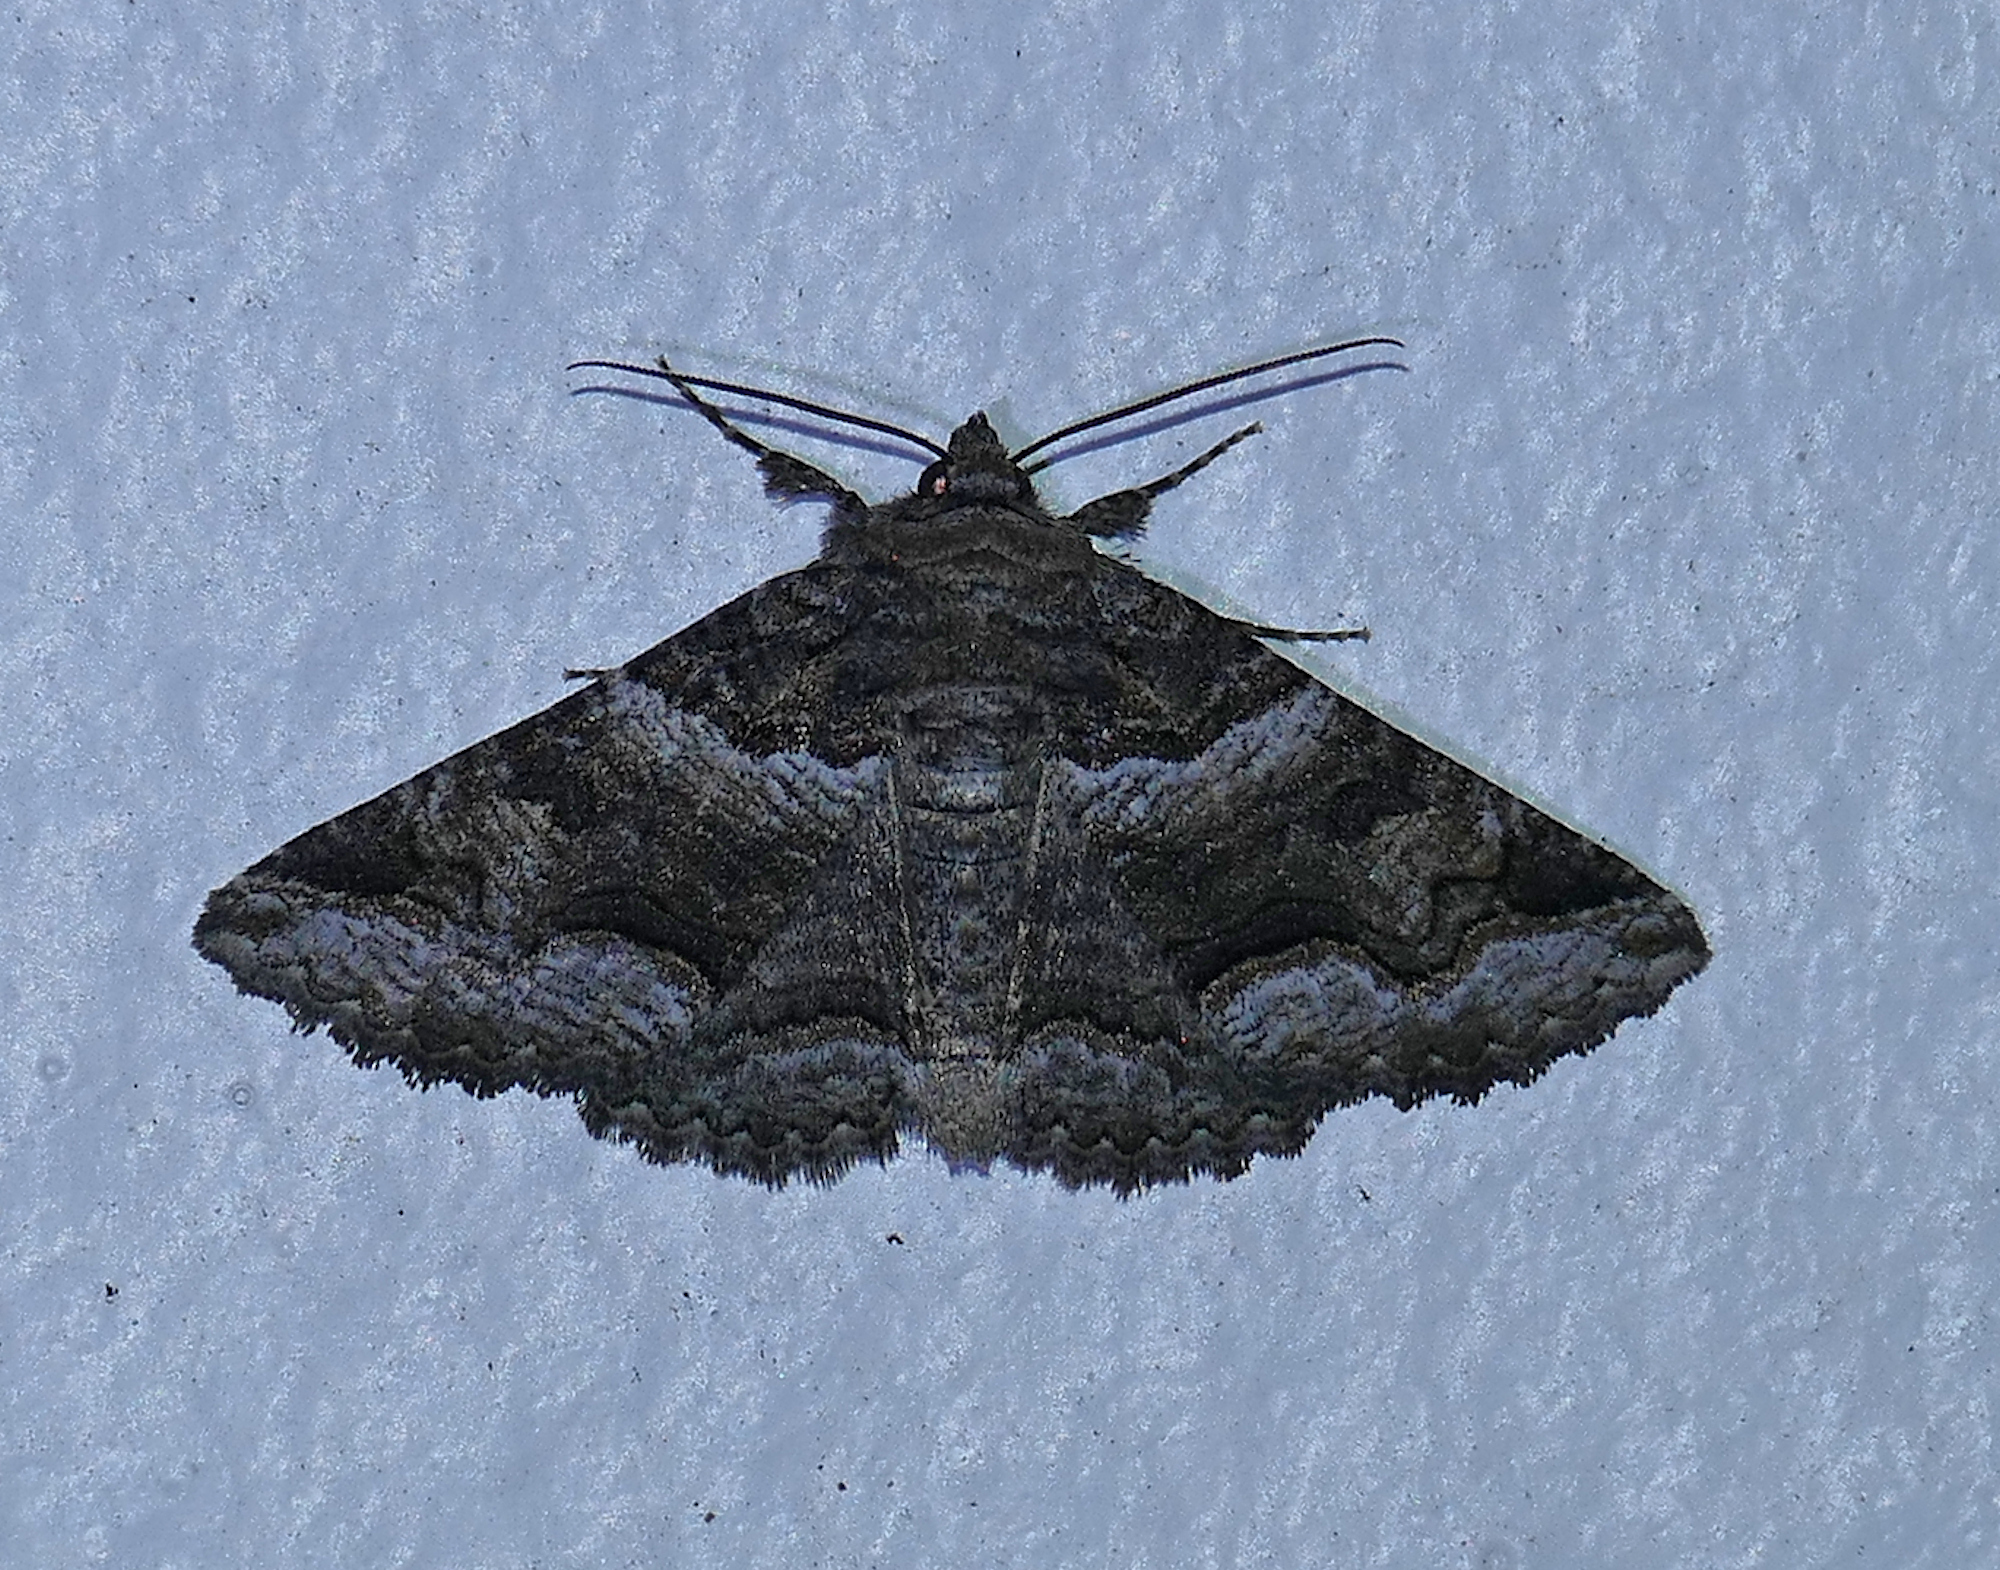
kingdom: Animalia
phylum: Arthropoda
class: Insecta
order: Lepidoptera
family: Erebidae
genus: Zale
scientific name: Zale colorado
